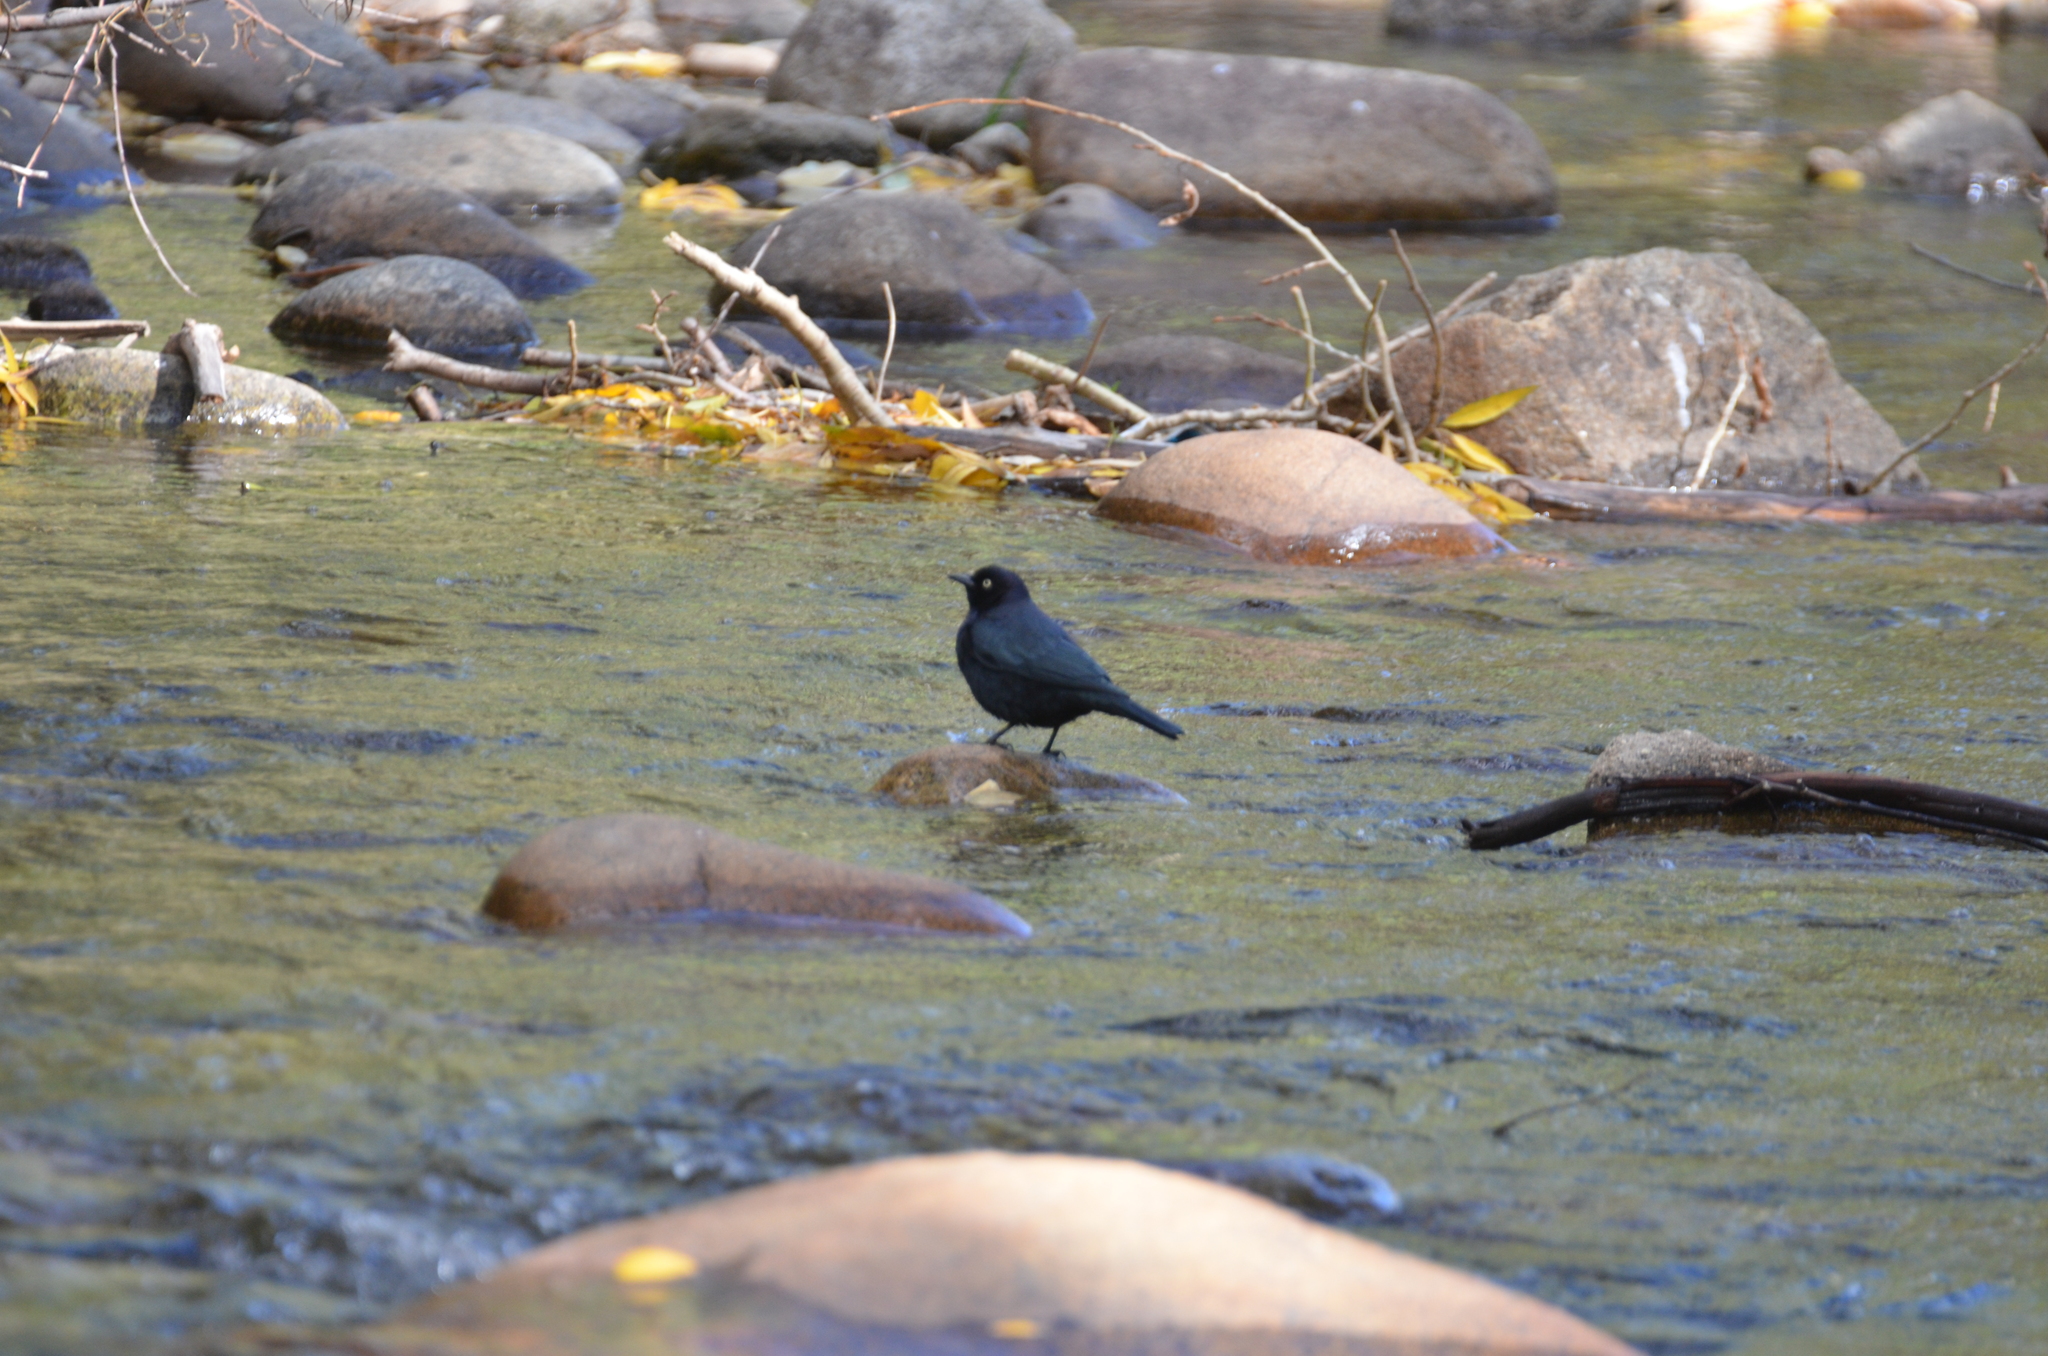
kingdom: Animalia
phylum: Chordata
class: Aves
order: Passeriformes
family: Icteridae
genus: Euphagus
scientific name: Euphagus cyanocephalus
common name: Brewer's blackbird
